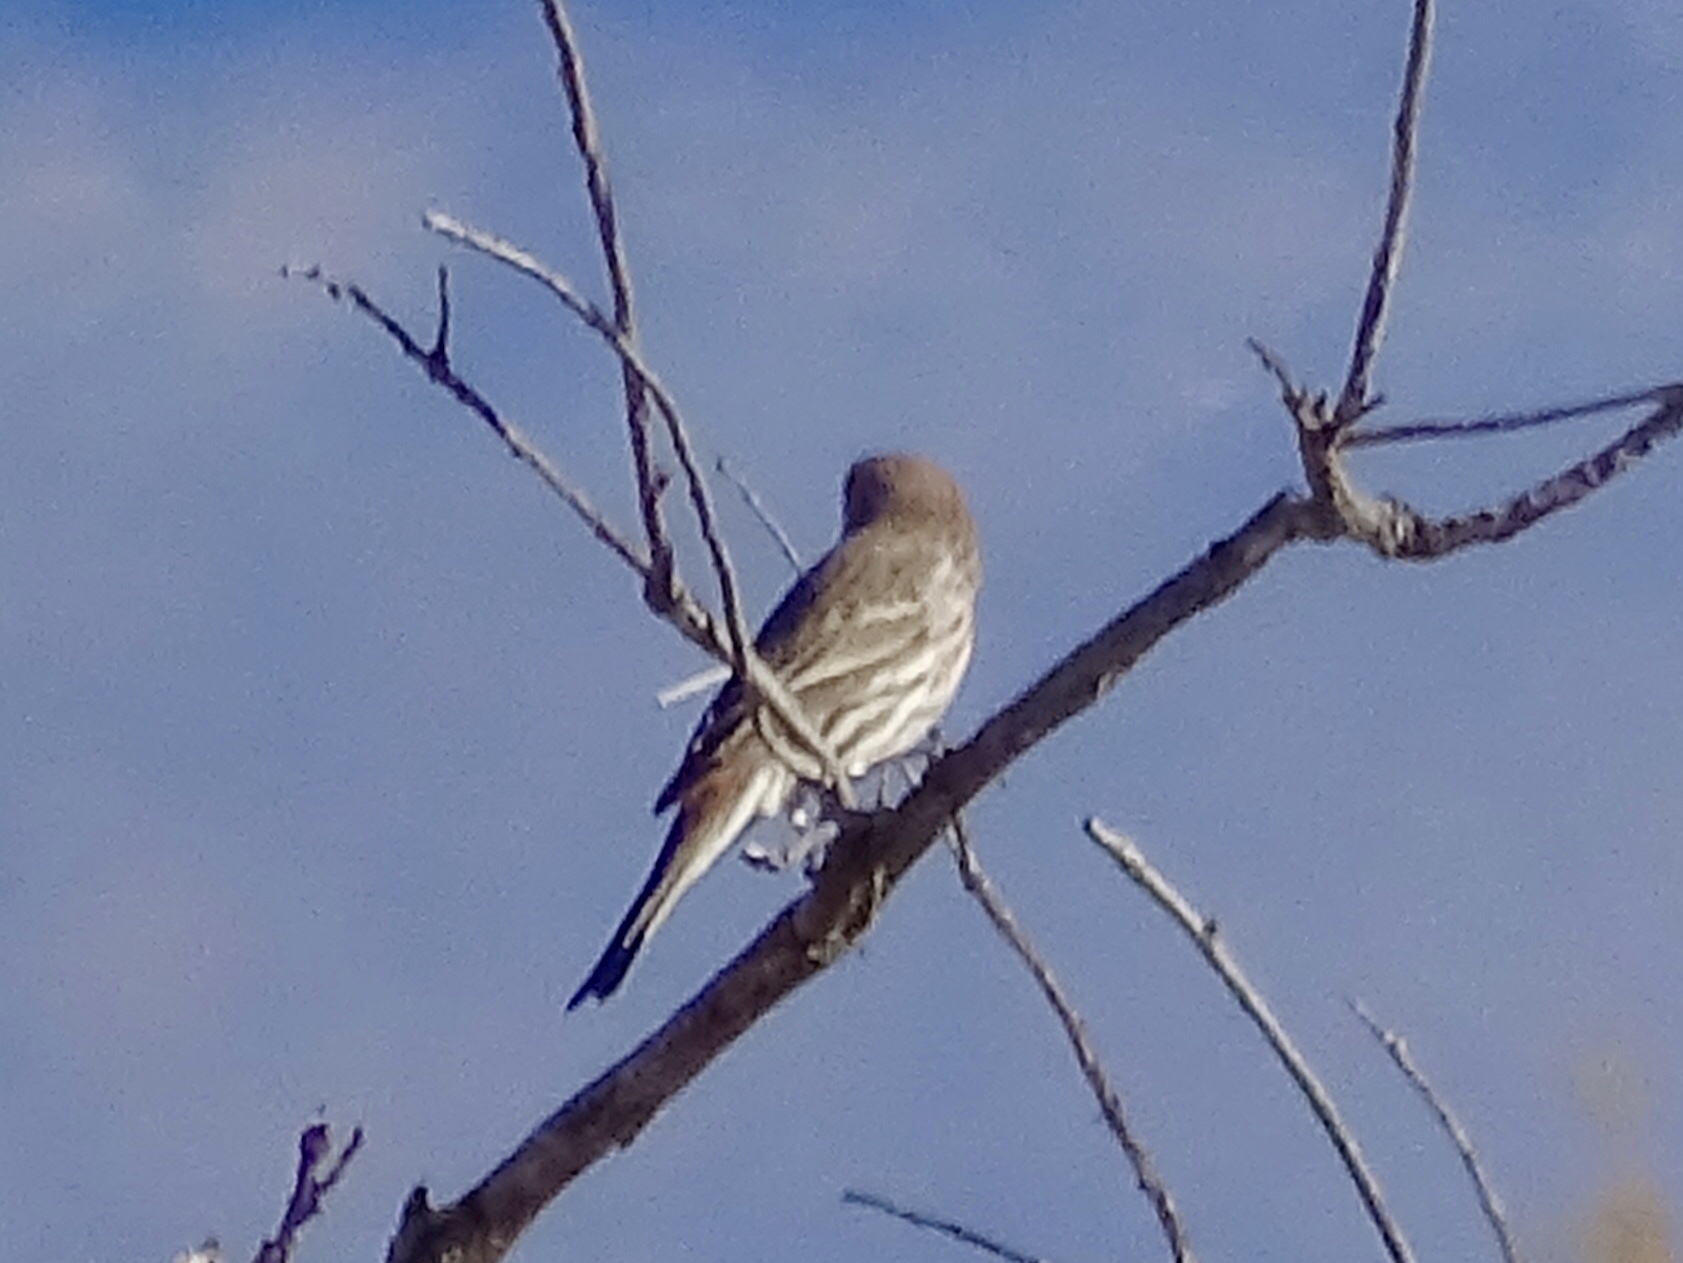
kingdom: Animalia
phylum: Chordata
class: Aves
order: Passeriformes
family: Fringillidae
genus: Haemorhous
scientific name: Haemorhous mexicanus
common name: House finch
